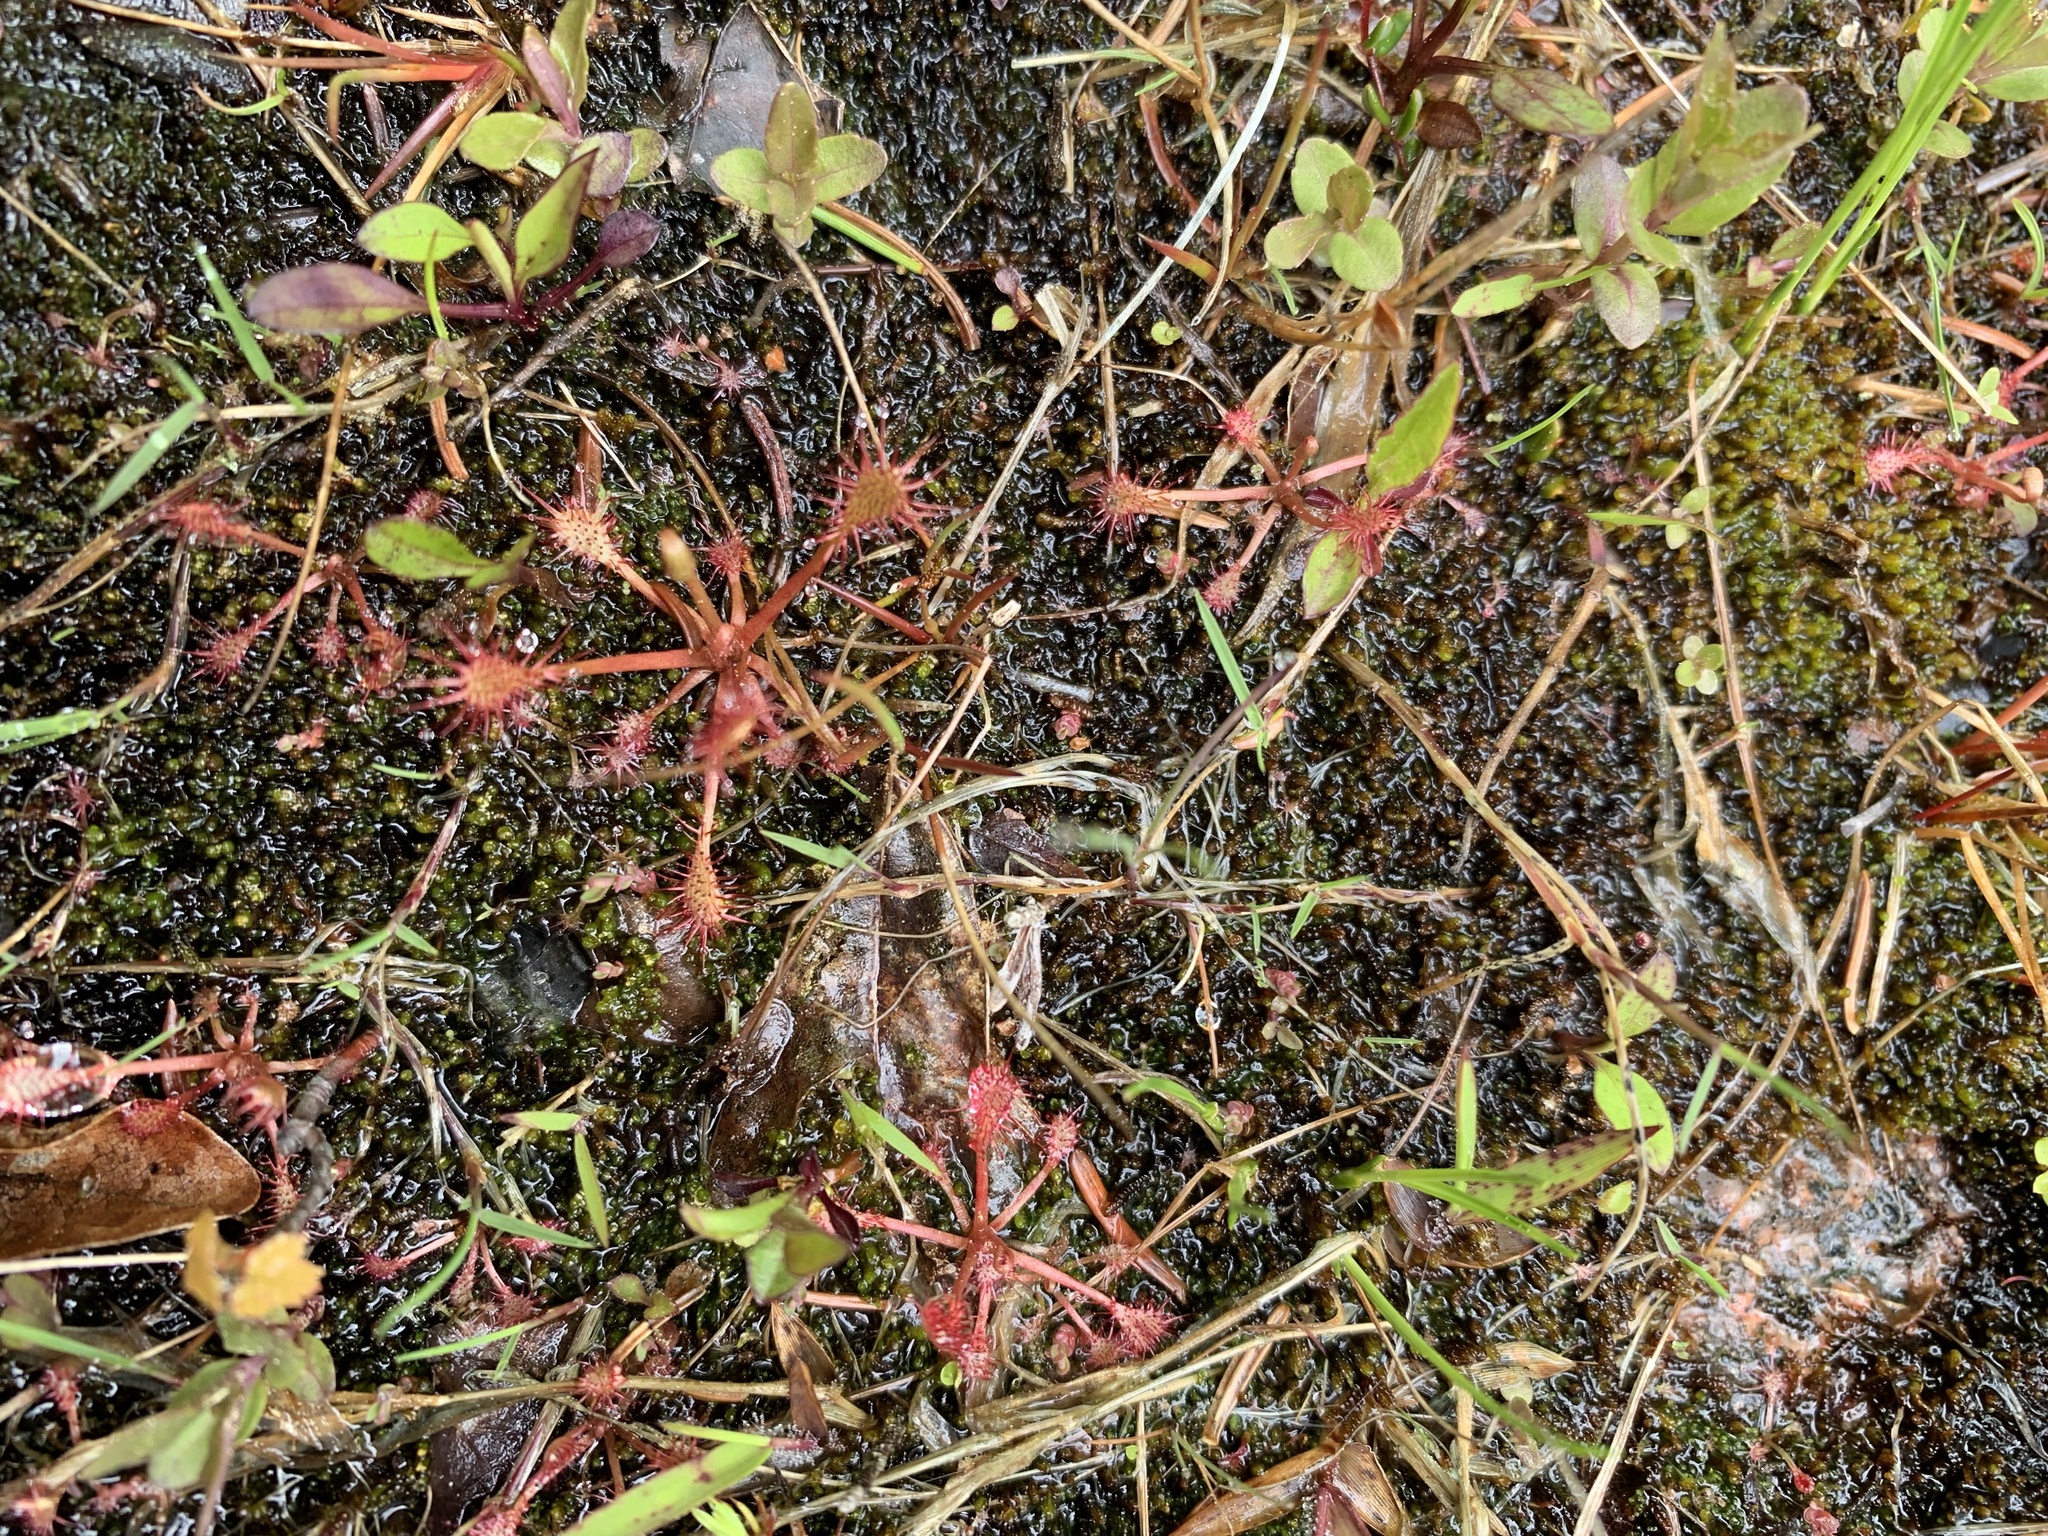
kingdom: Plantae
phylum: Tracheophyta
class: Magnoliopsida
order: Caryophyllales
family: Droseraceae
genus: Drosera
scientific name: Drosera intermedia
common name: Oblong-leaved sundew
